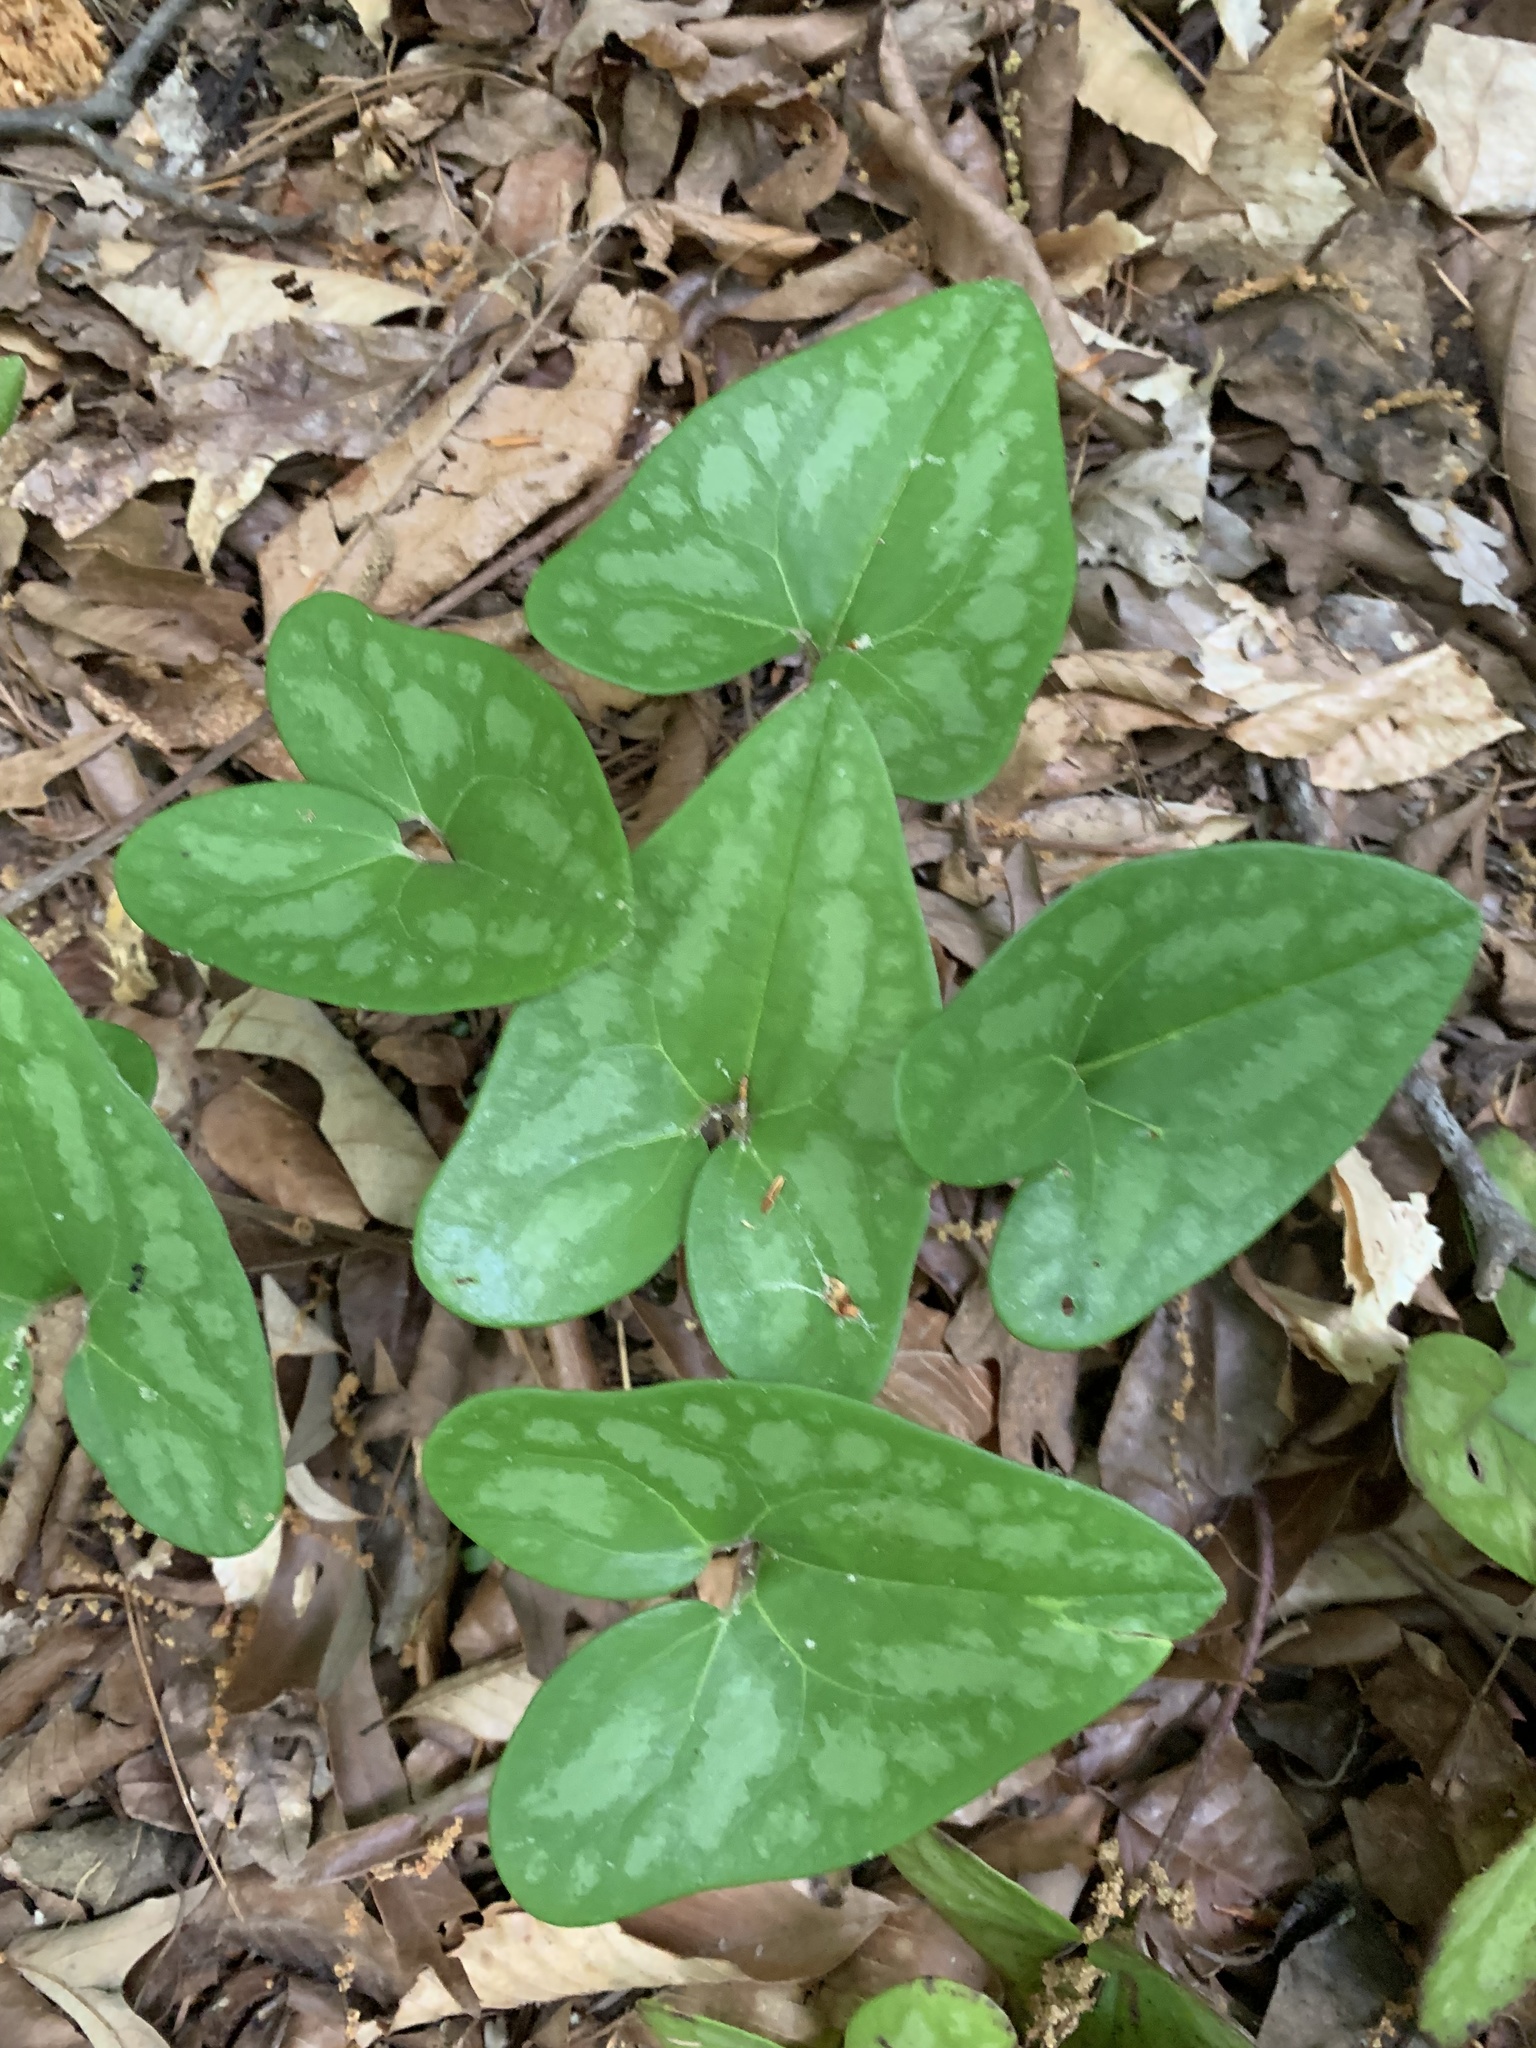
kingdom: Plantae
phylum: Tracheophyta
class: Magnoliopsida
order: Piperales
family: Aristolochiaceae
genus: Hexastylis
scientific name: Hexastylis arifolia
